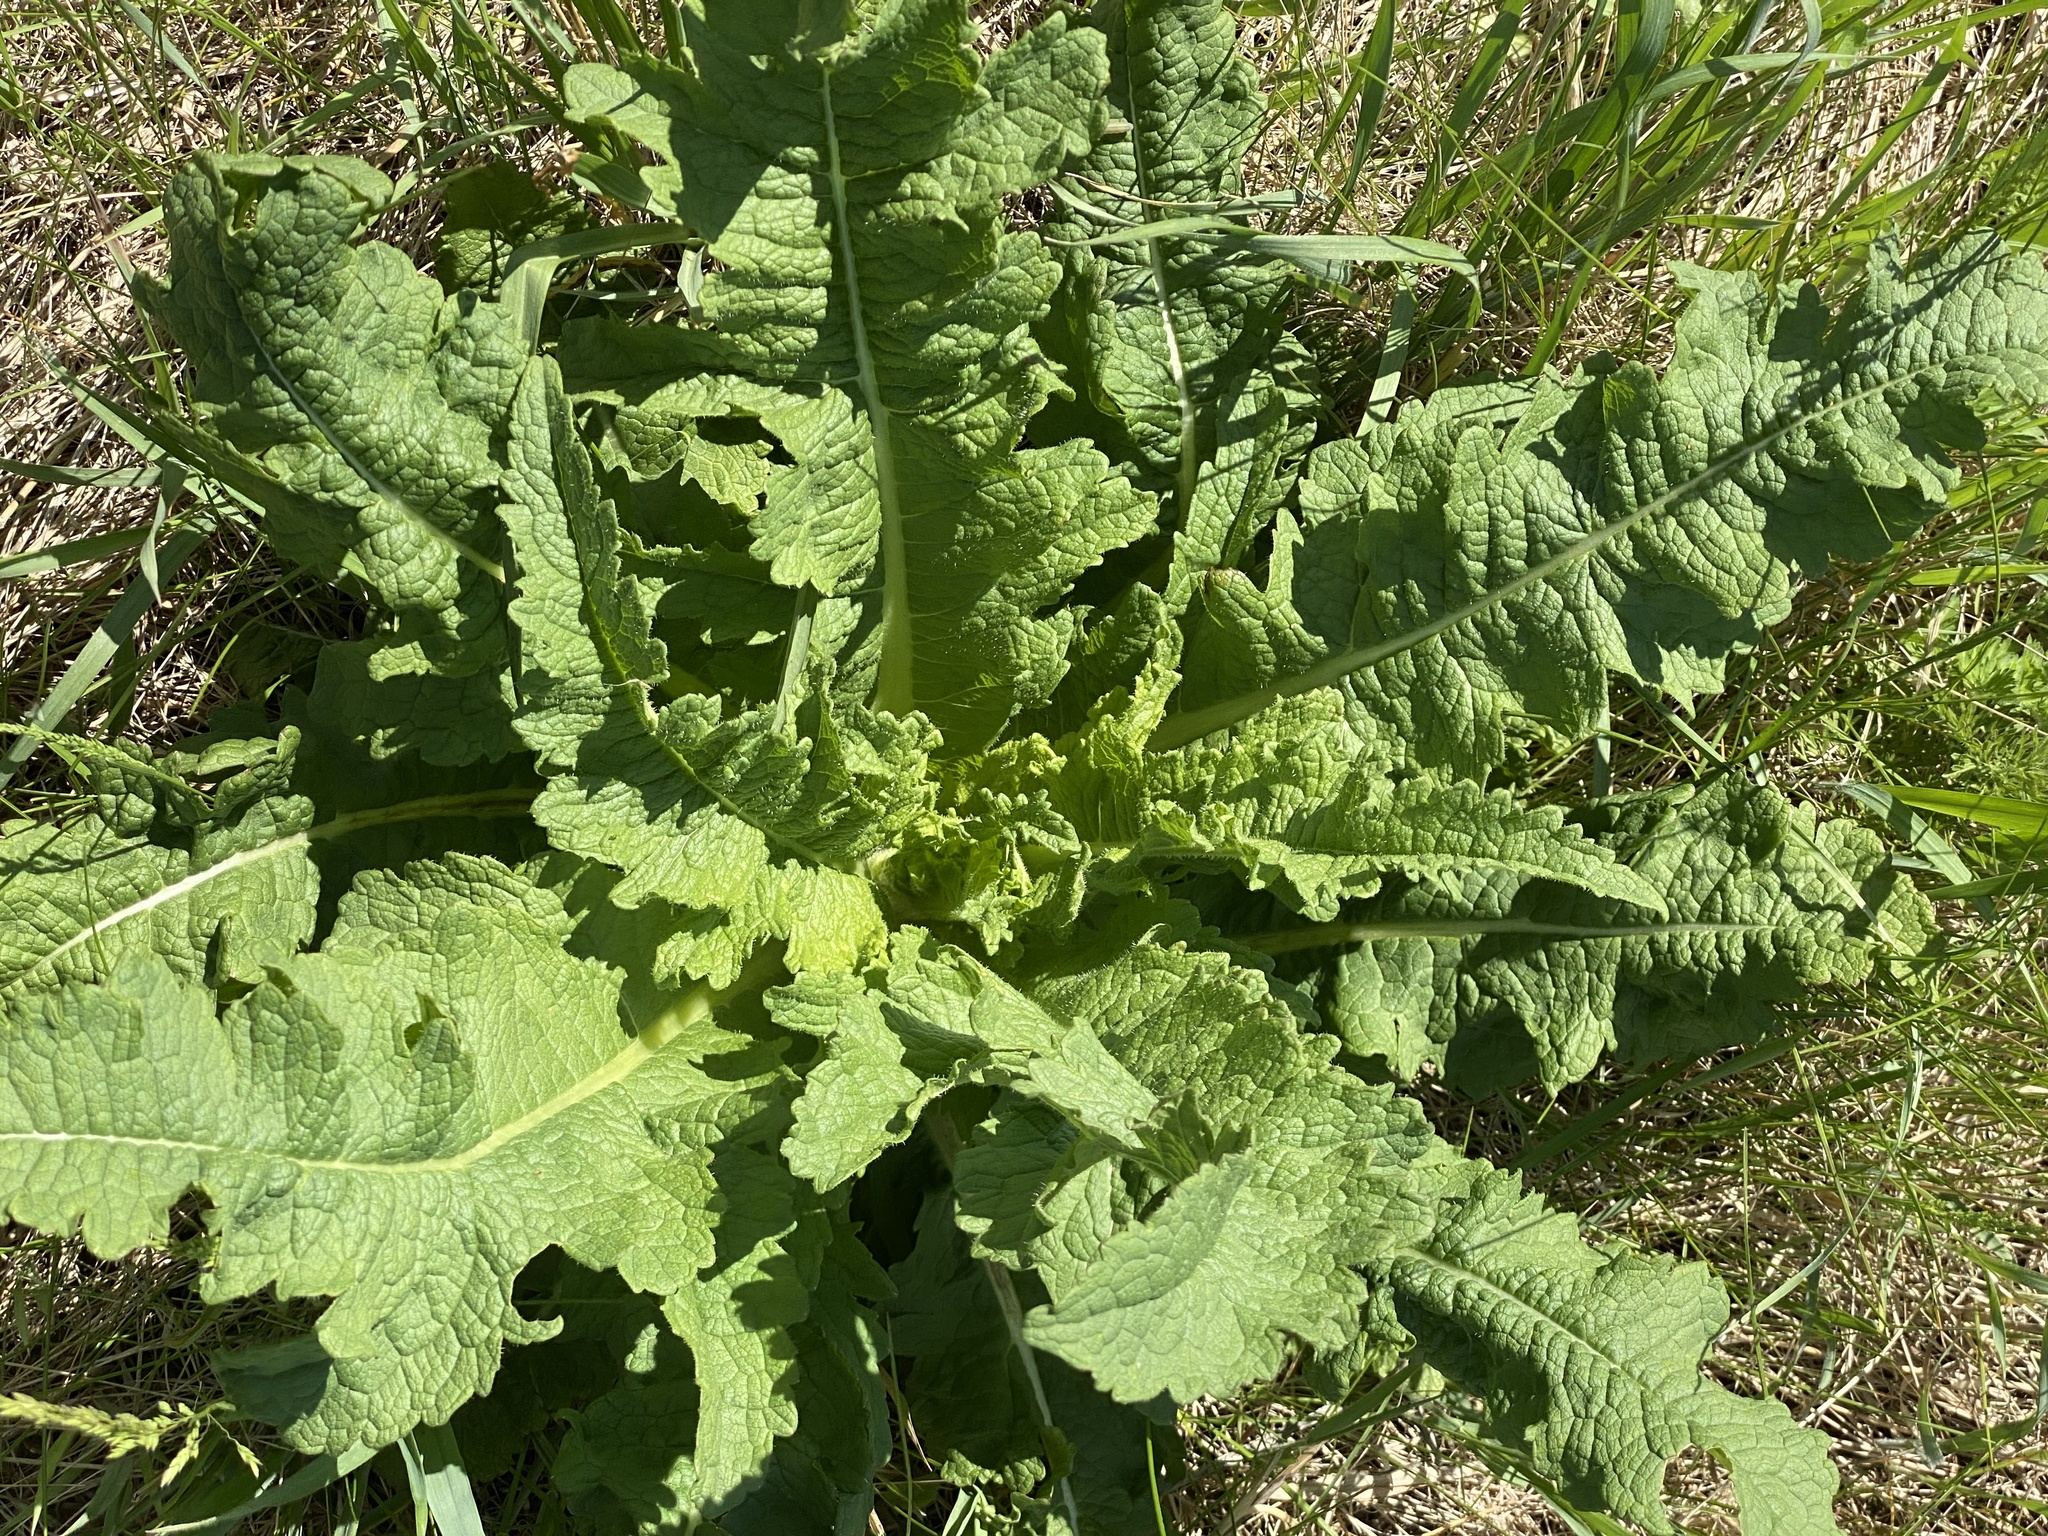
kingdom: Plantae
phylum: Tracheophyta
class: Magnoliopsida
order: Dipsacales
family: Caprifoliaceae
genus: Dipsacus
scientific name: Dipsacus laciniatus
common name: Cut-leaved teasel
